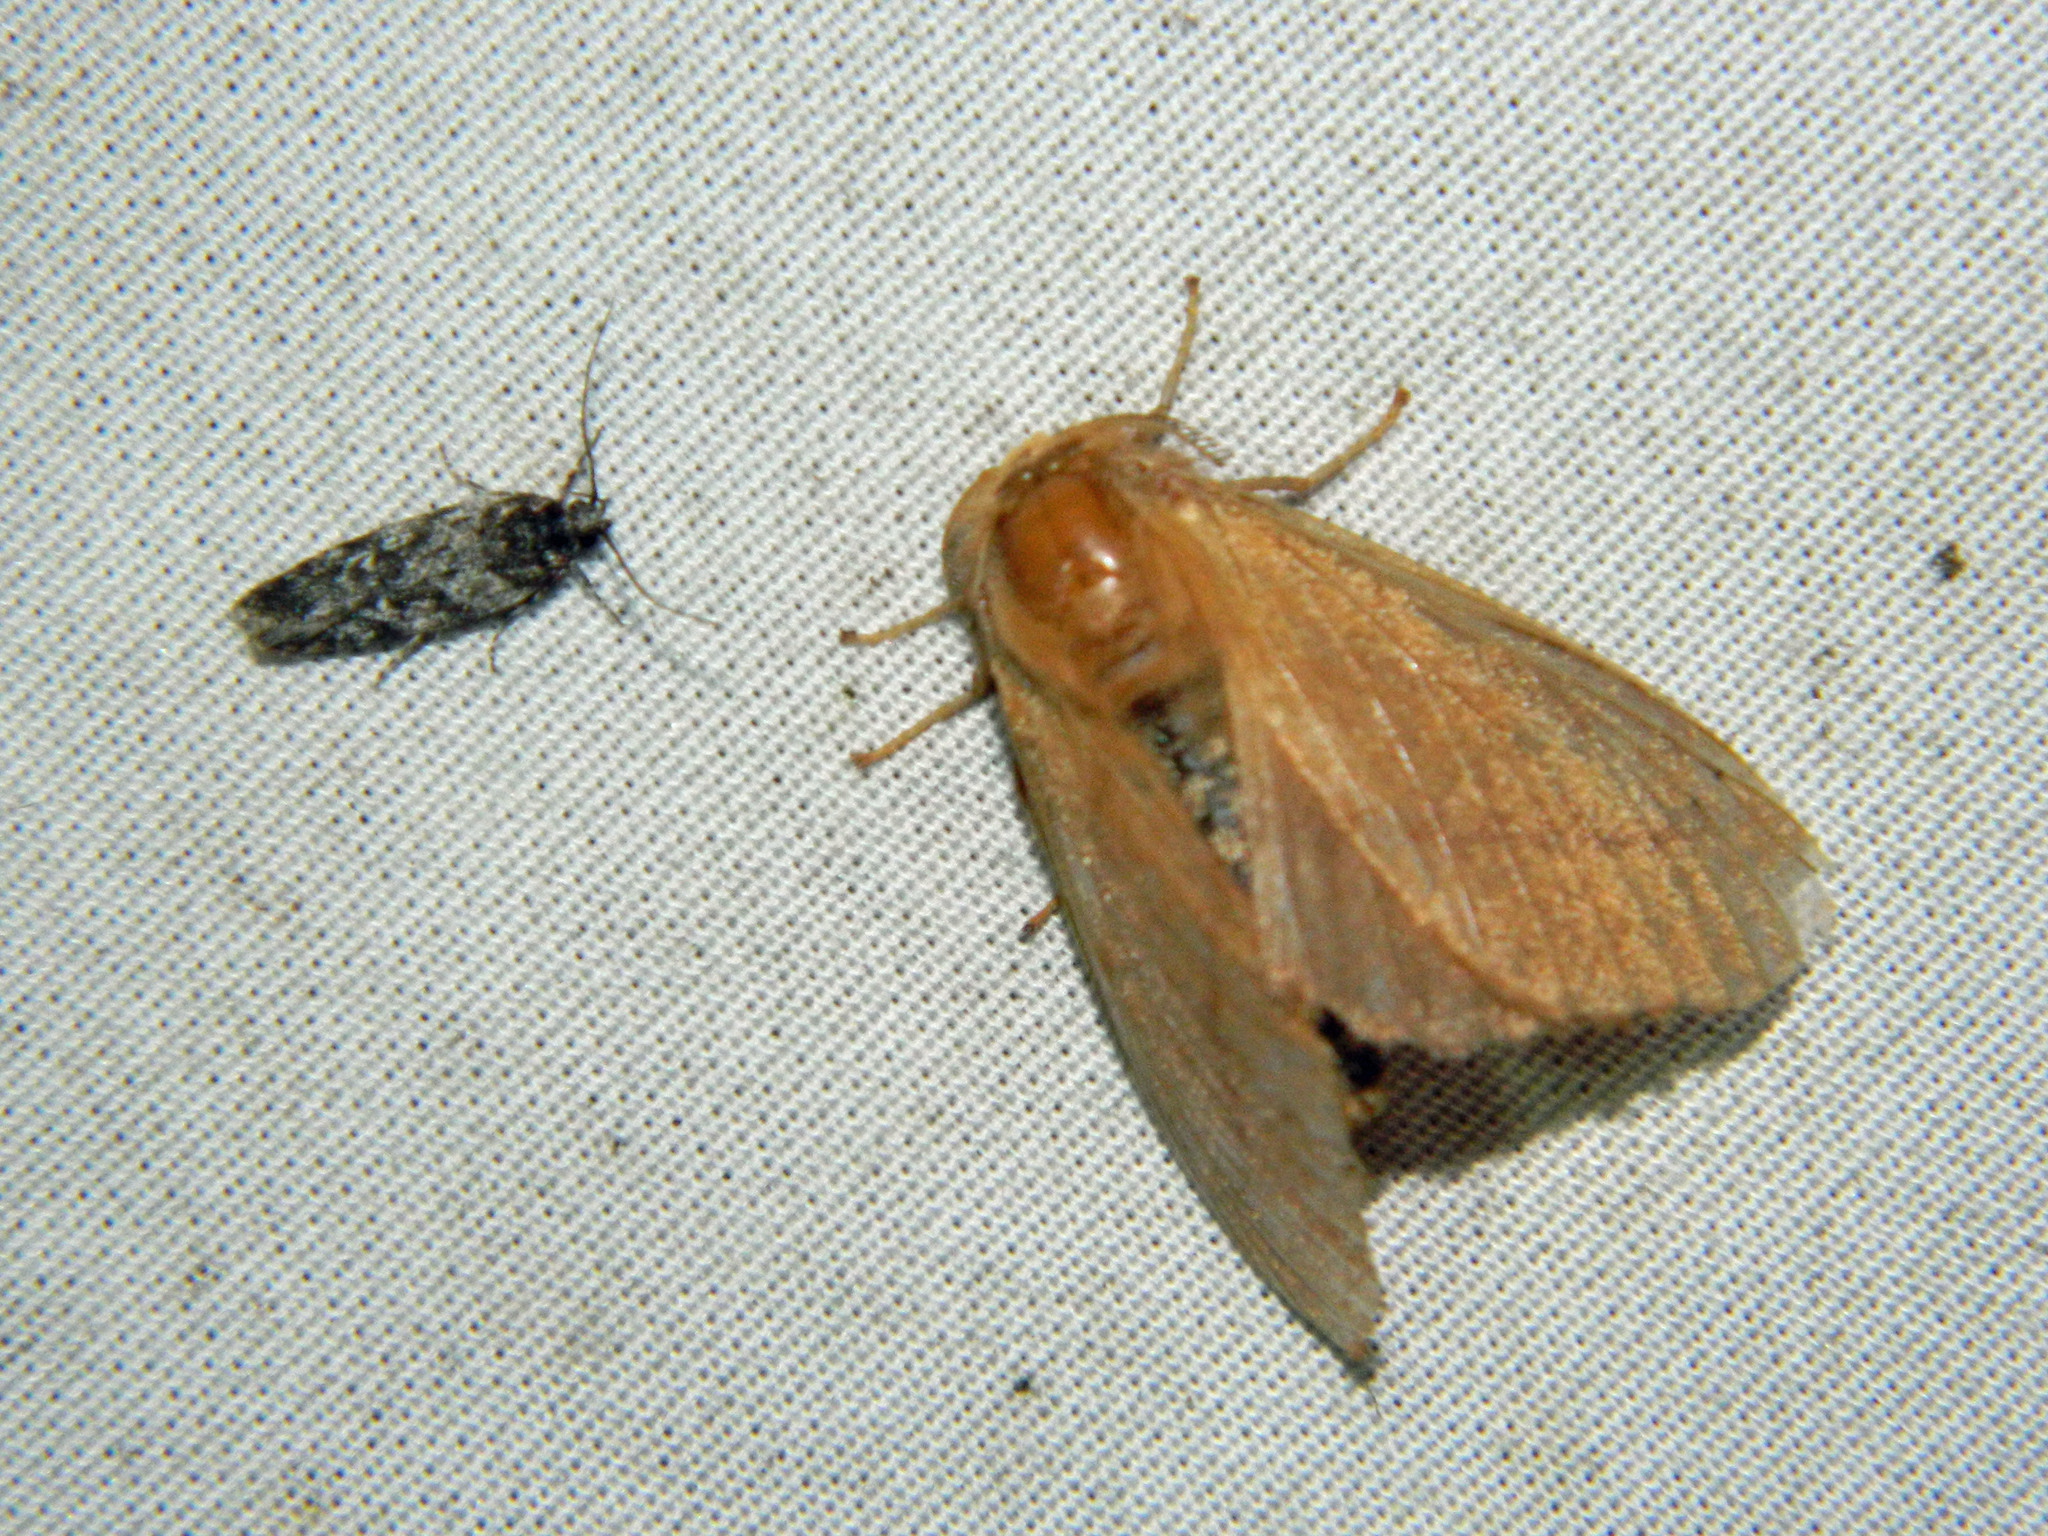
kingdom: Animalia
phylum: Arthropoda
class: Insecta
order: Lepidoptera
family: Lasiocampidae
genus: Malacosoma
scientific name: Malacosoma disstria
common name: Forest tent caterpillar
